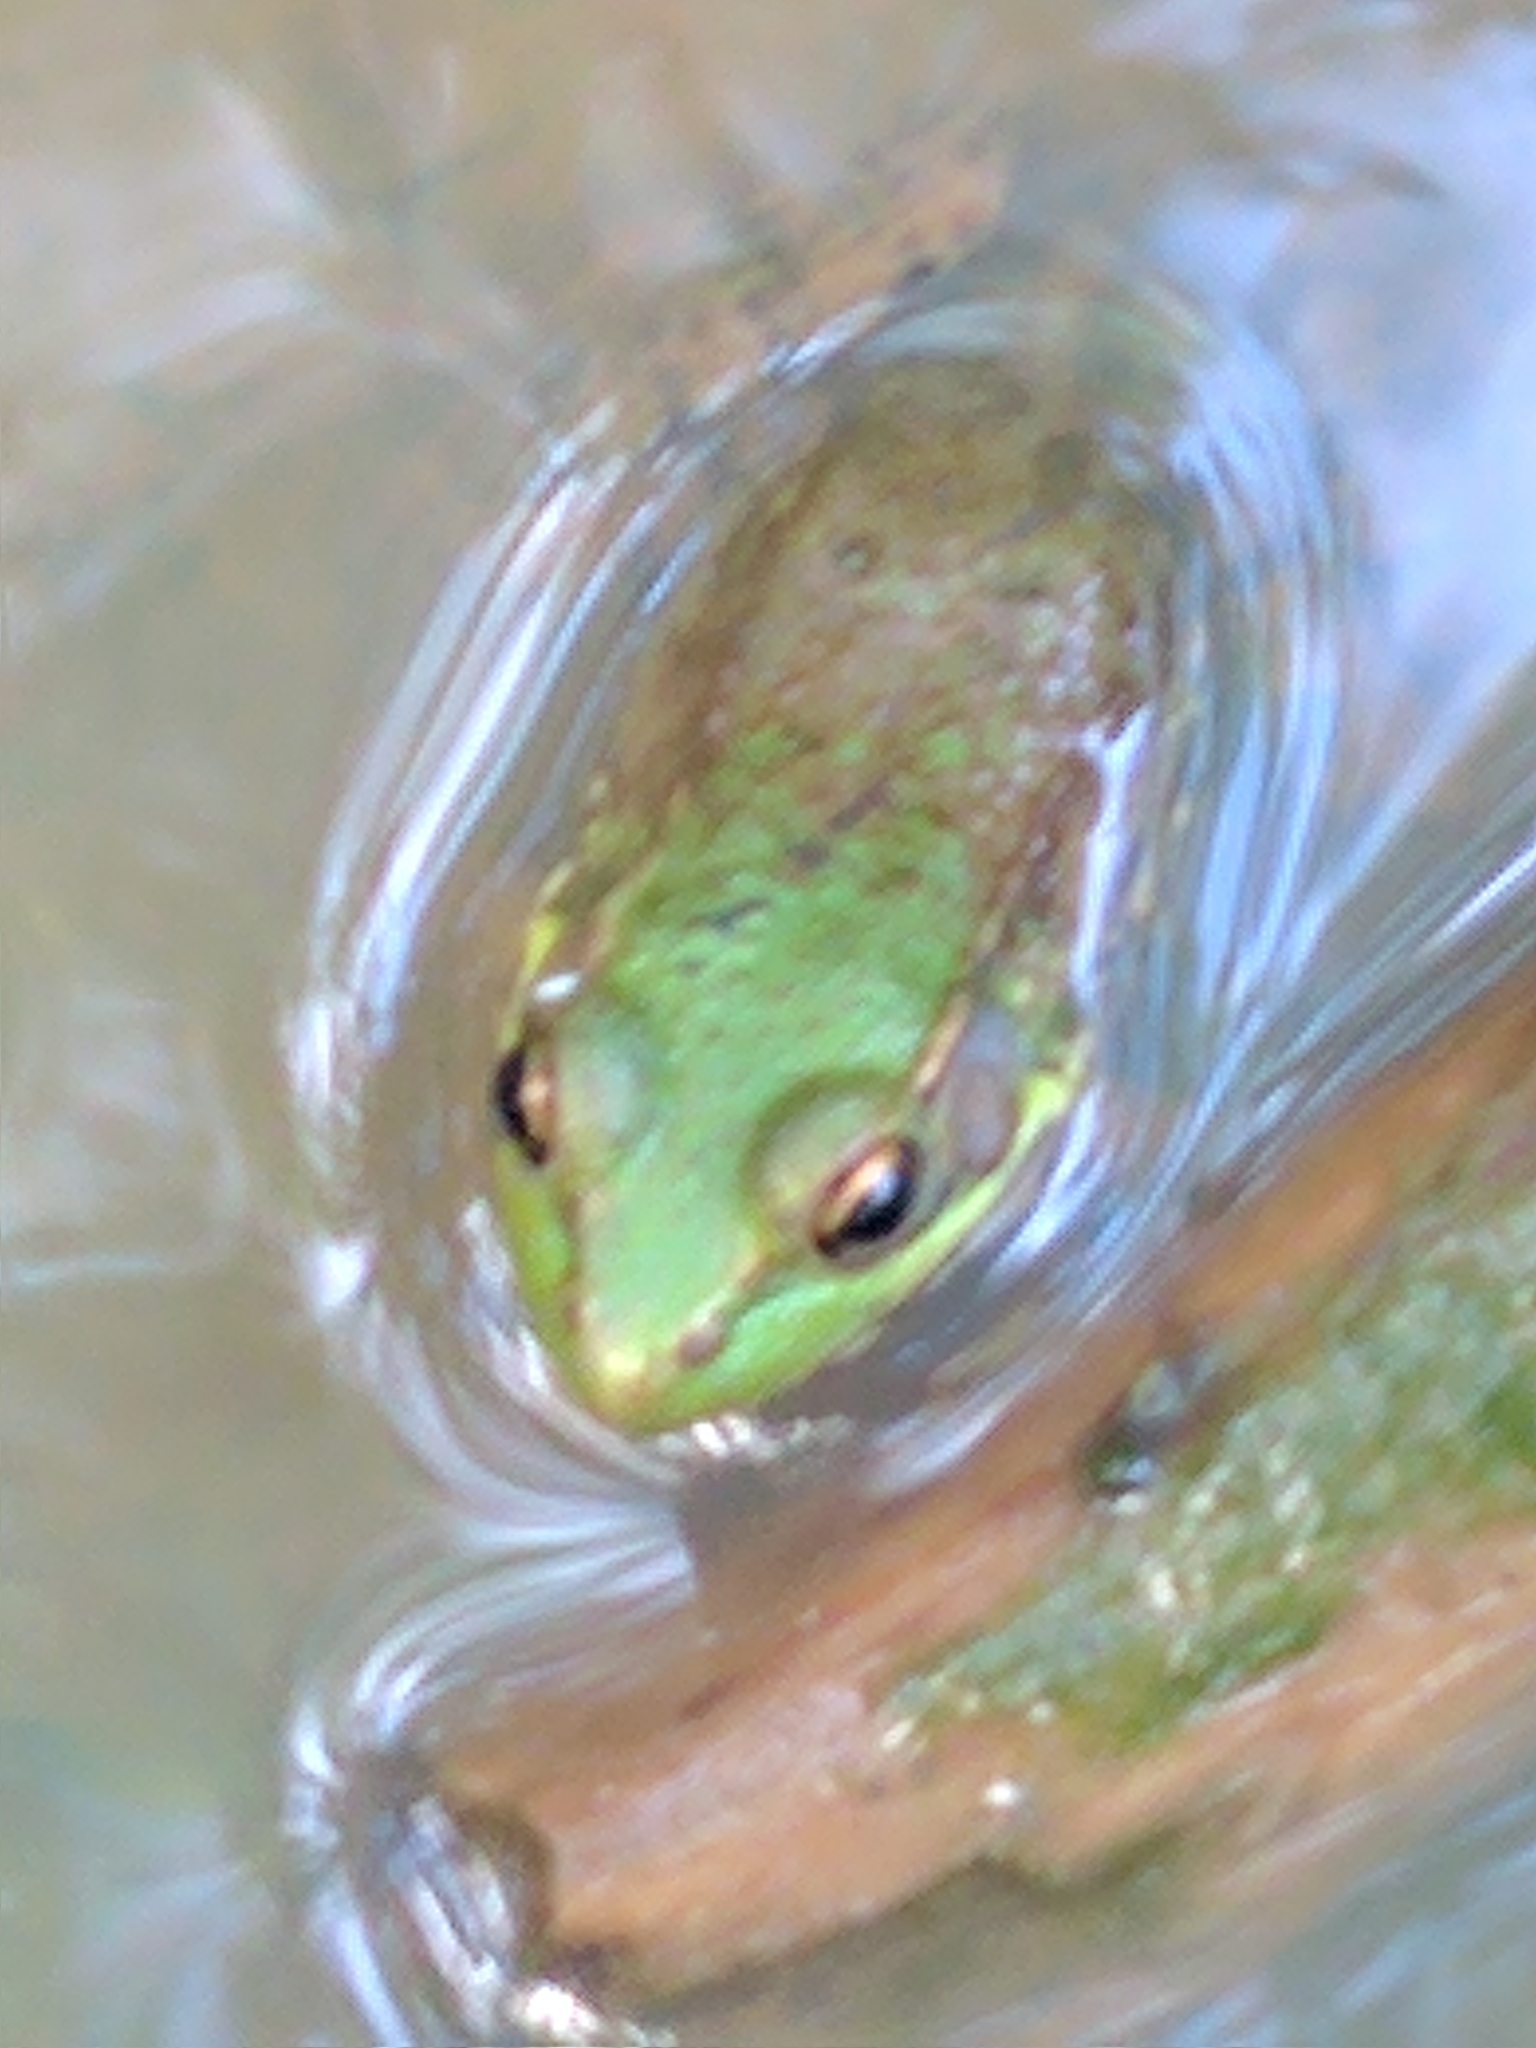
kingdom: Animalia
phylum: Chordata
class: Amphibia
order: Anura
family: Ranidae
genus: Lithobates
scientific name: Lithobates clamitans
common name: Green frog
